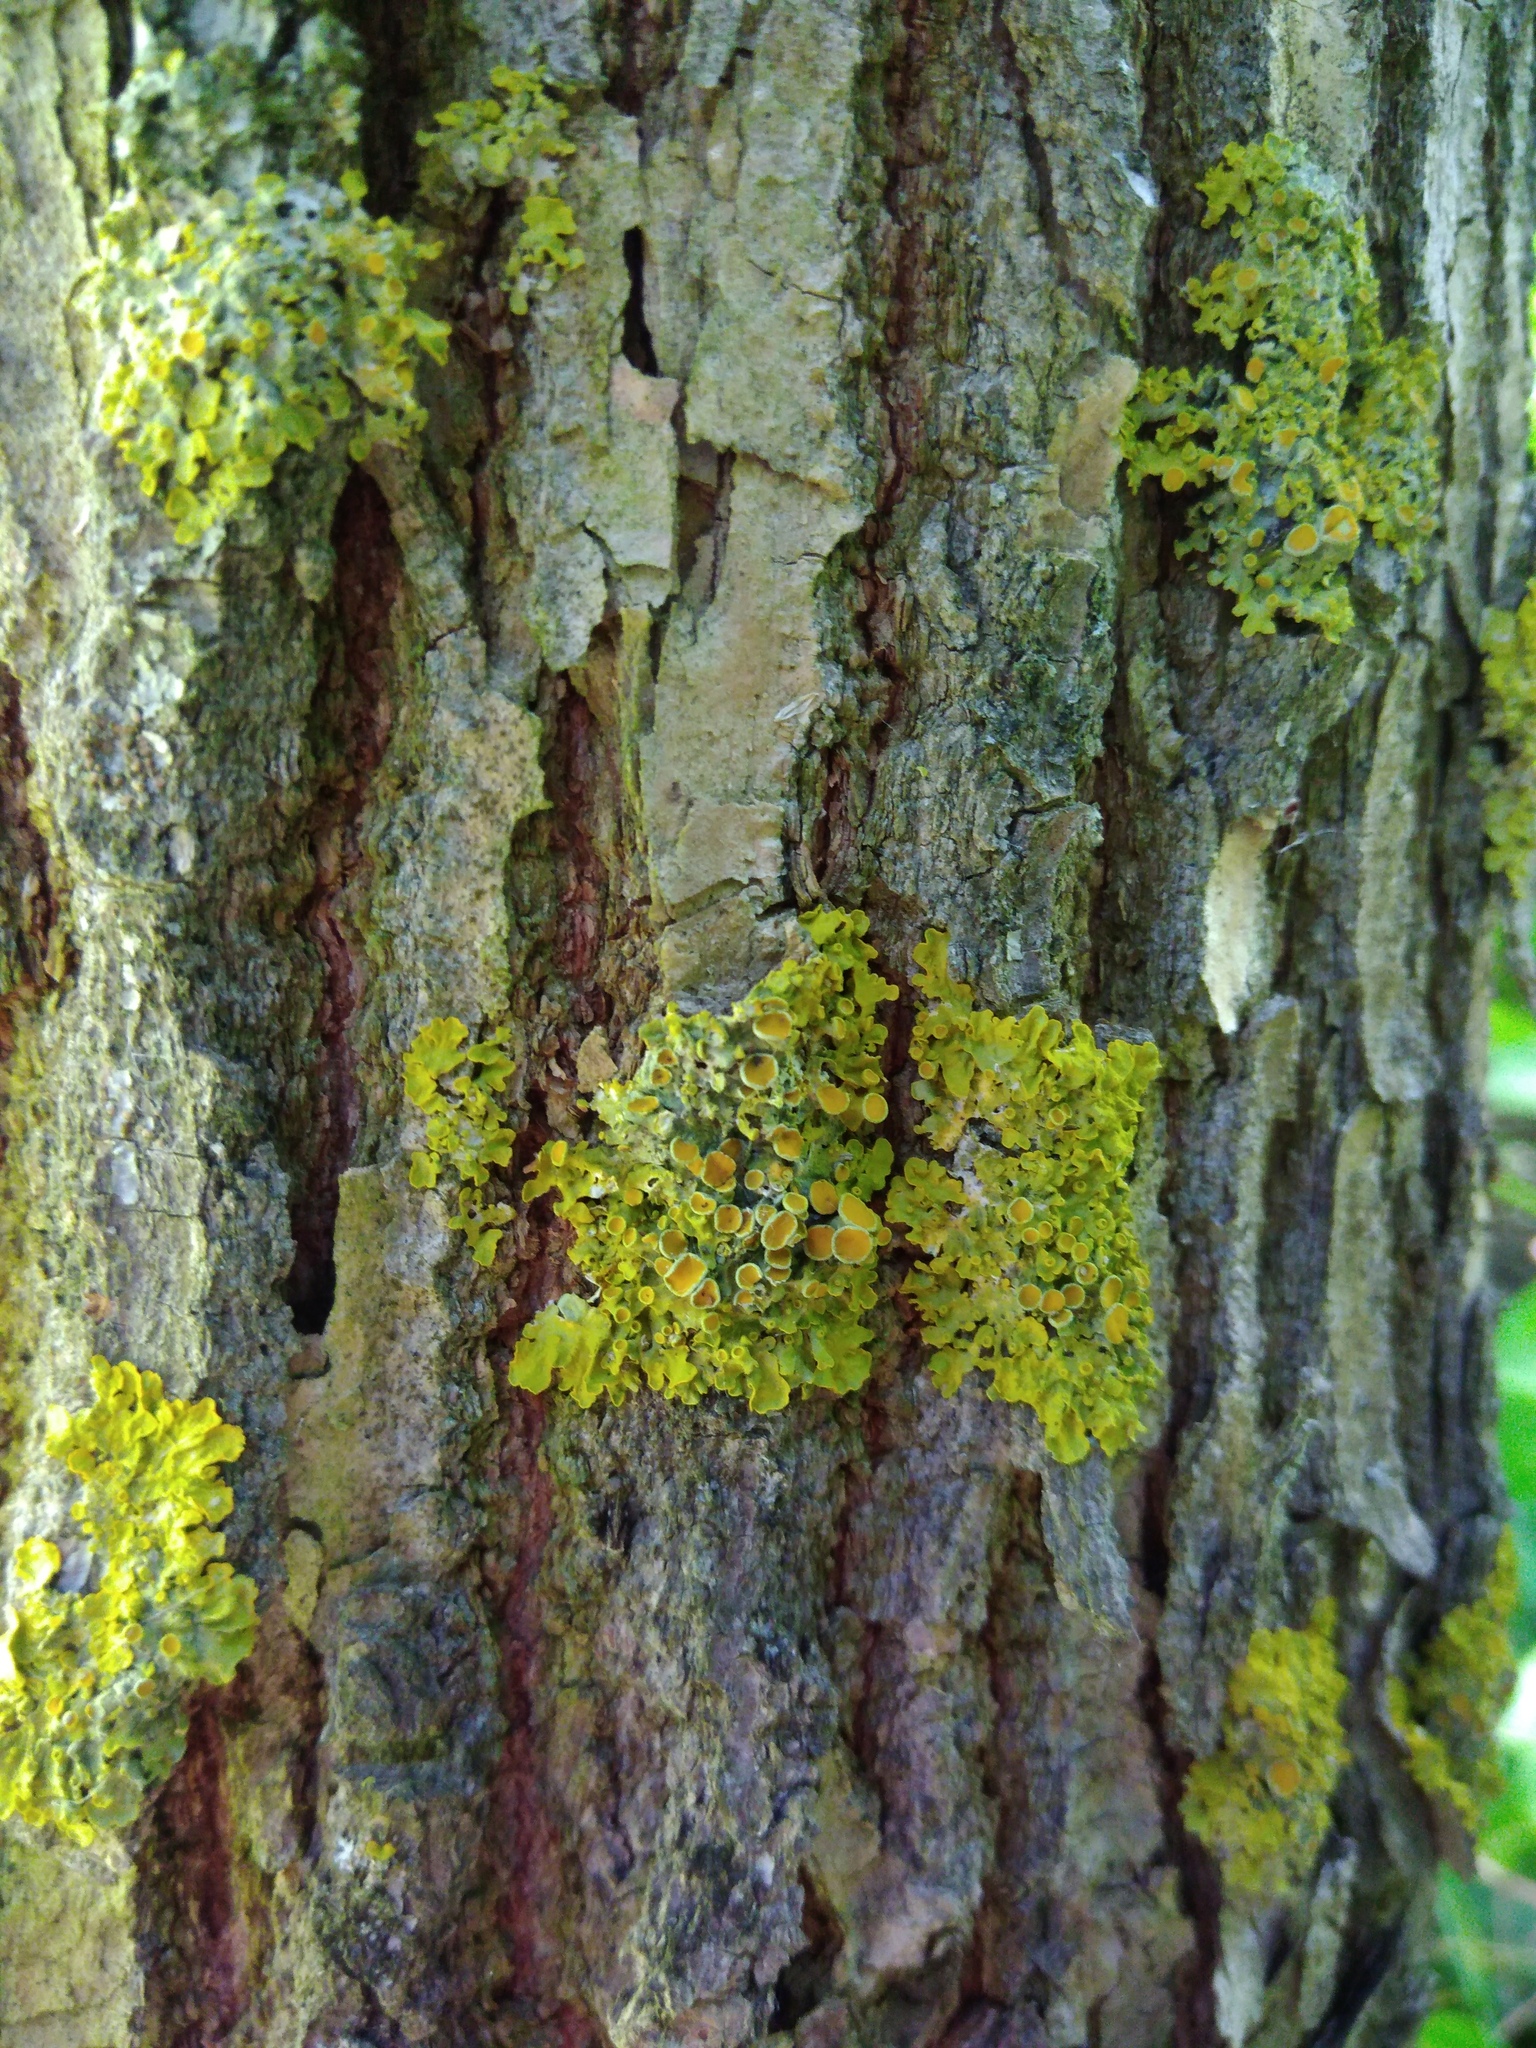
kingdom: Fungi
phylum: Ascomycota
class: Lecanoromycetes
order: Teloschistales
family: Teloschistaceae
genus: Xanthoria
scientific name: Xanthoria parietina
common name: Common orange lichen
